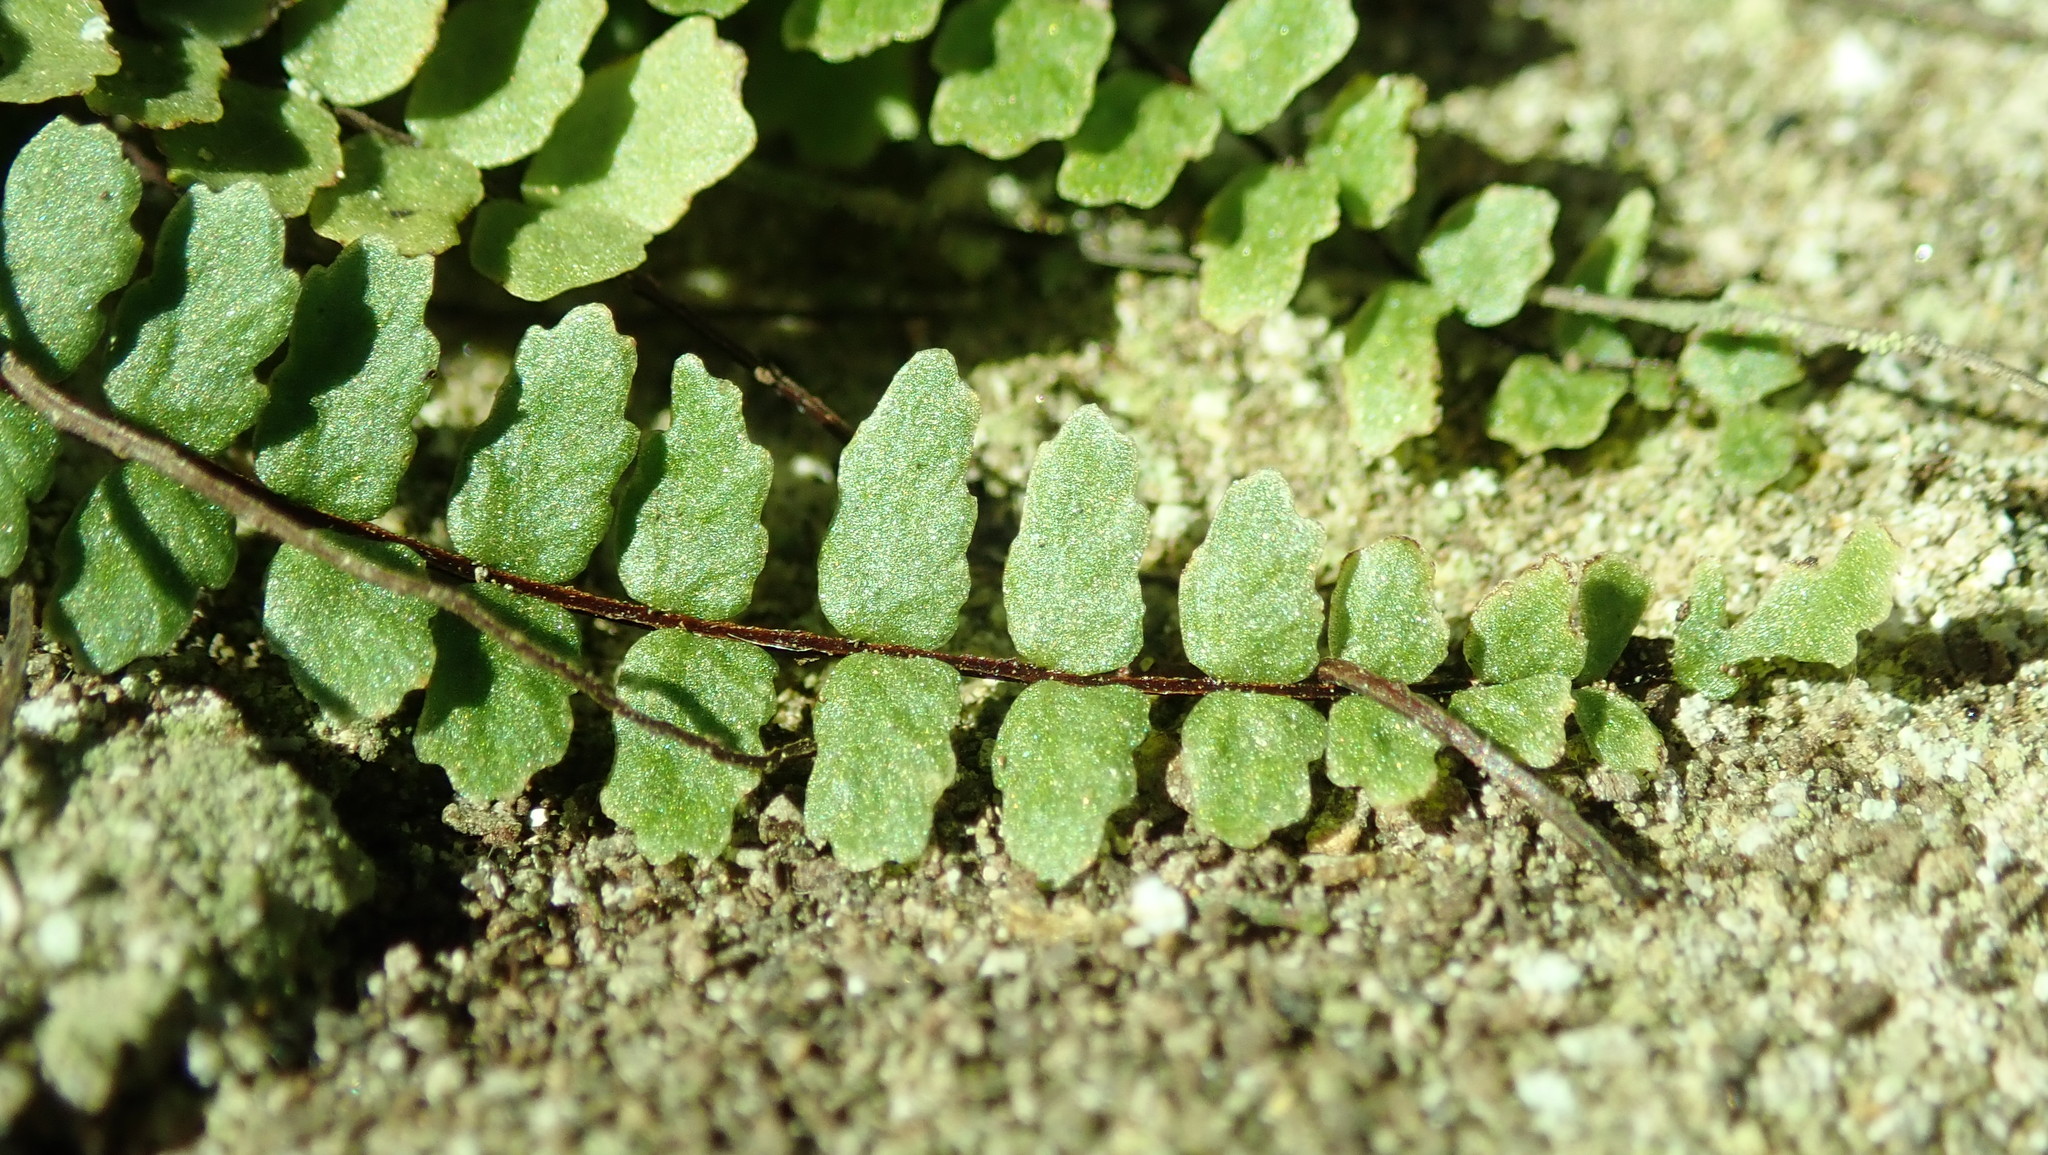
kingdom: Plantae
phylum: Tracheophyta
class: Polypodiopsida
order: Polypodiales
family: Aspleniaceae
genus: Asplenium
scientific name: Asplenium trichomanes
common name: Maidenhair spleenwort
